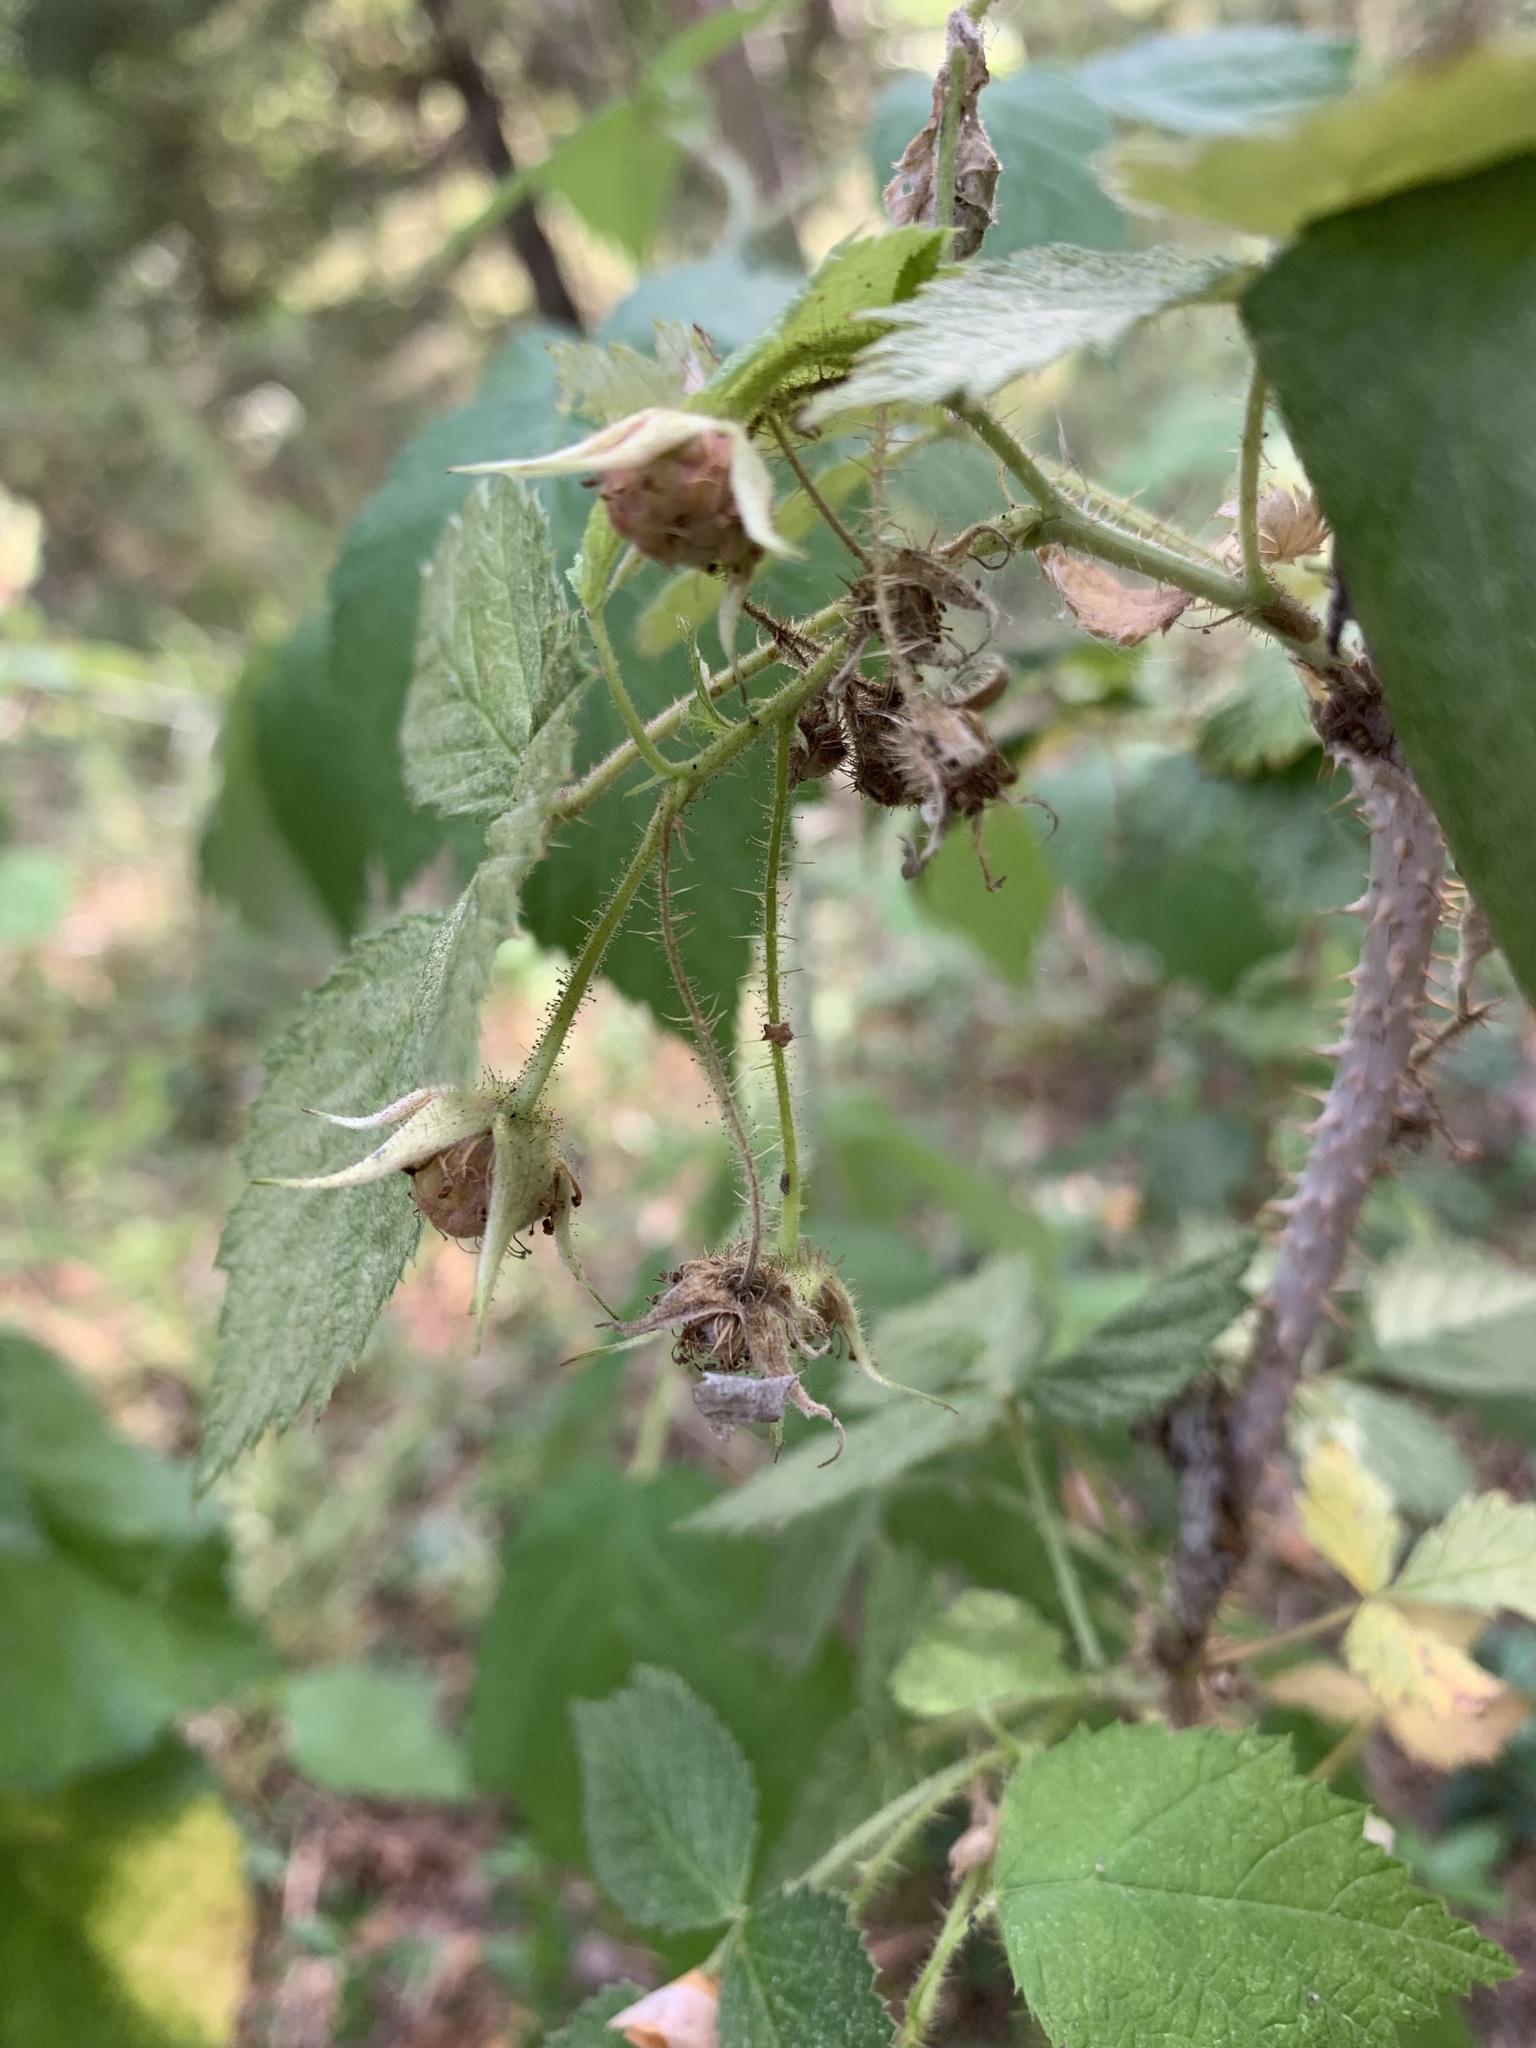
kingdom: Plantae
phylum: Tracheophyta
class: Magnoliopsida
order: Rosales
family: Rosaceae
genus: Rubus
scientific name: Rubus sachalinensis
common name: Red raspberry
